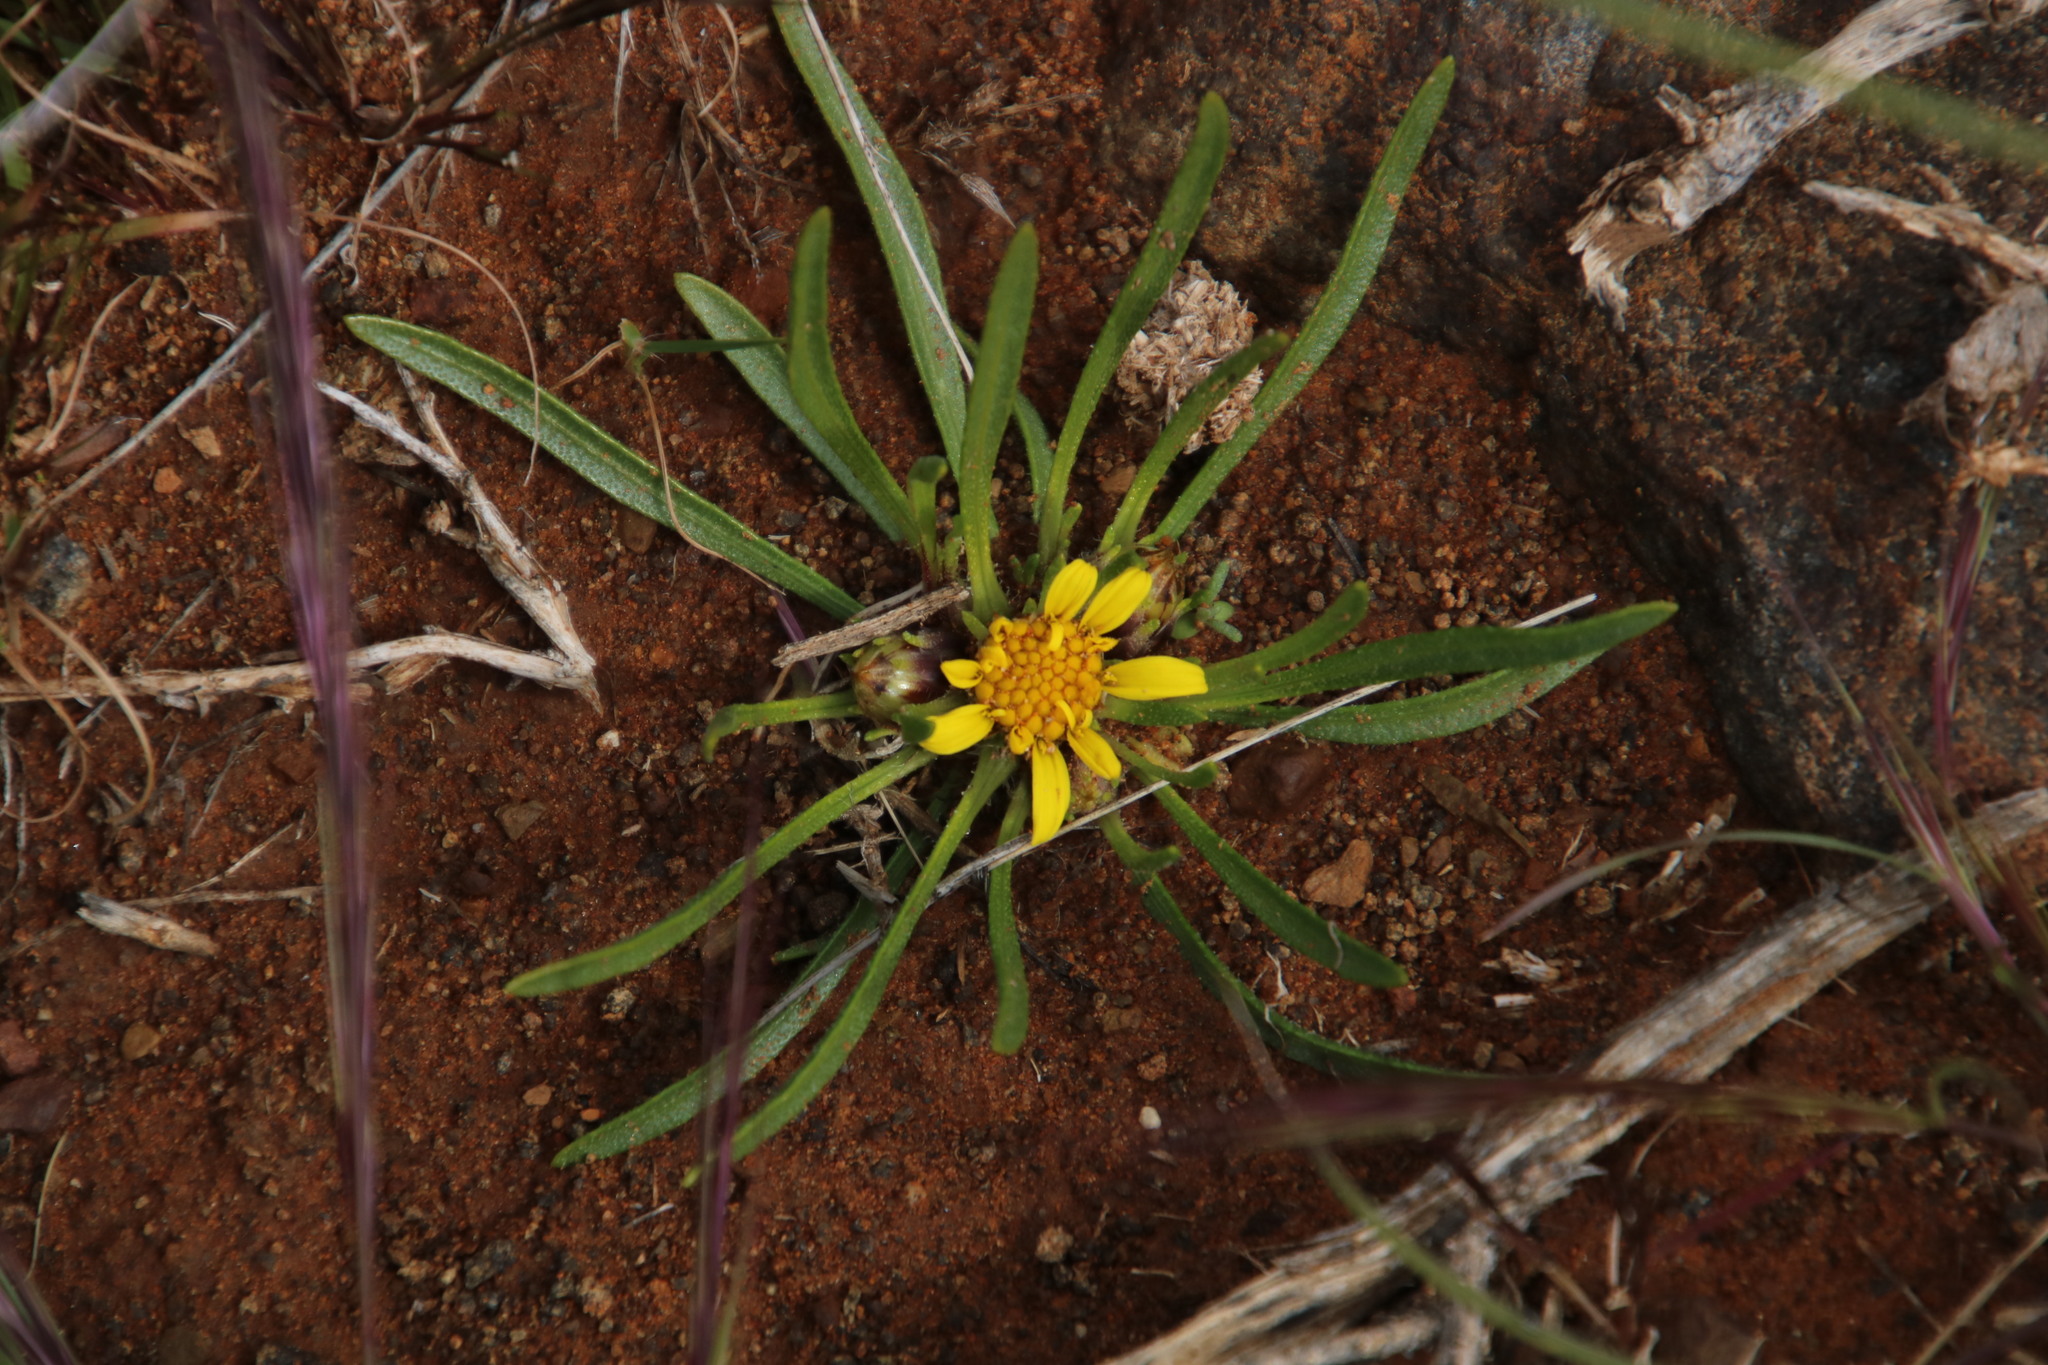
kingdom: Plantae
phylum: Tracheophyta
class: Magnoliopsida
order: Asterales
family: Asteraceae
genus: Geigeria
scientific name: Geigeria ornativa
